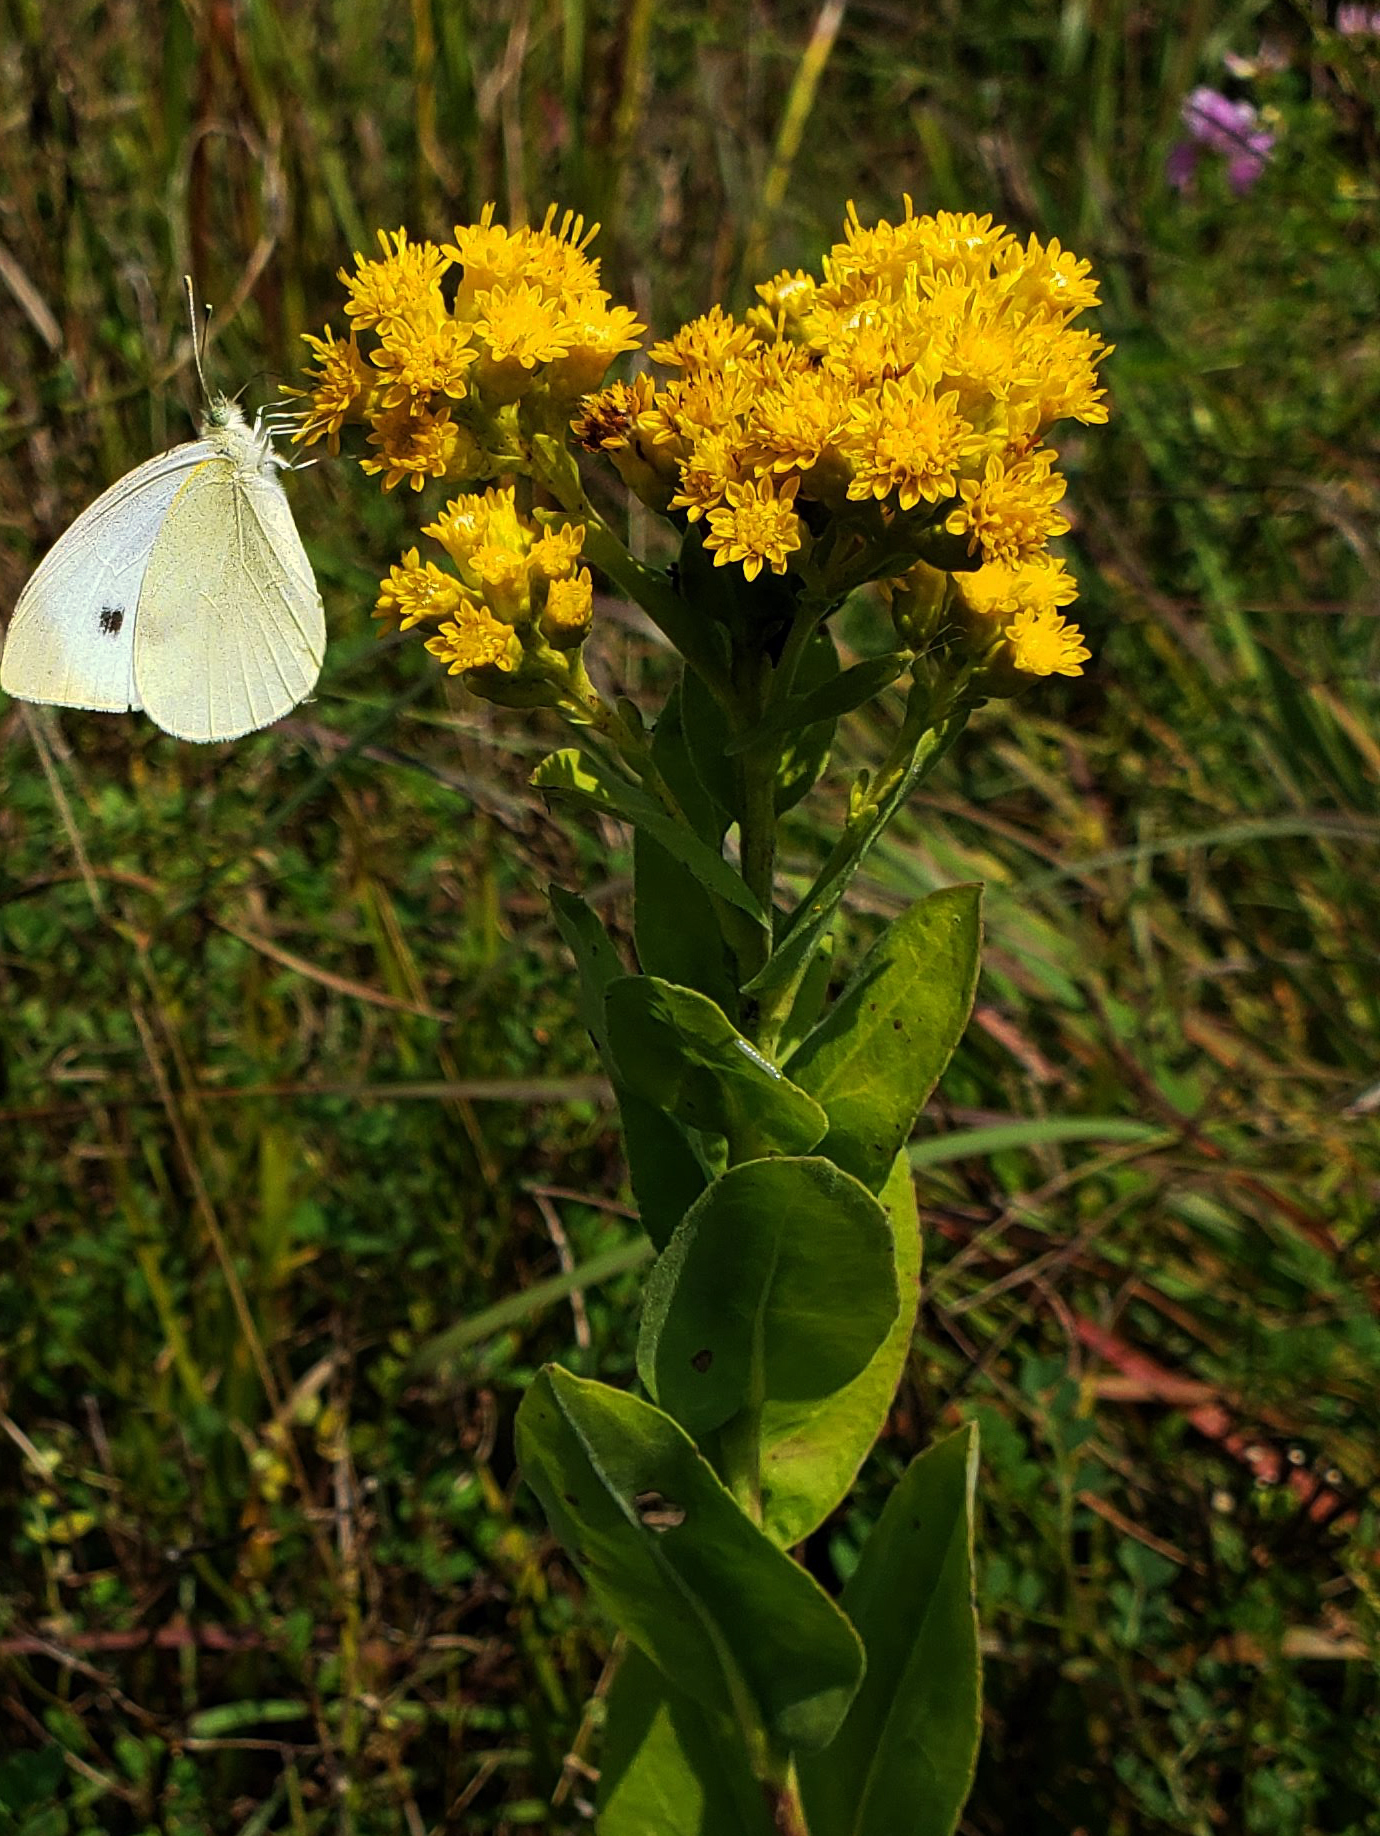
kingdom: Plantae
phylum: Tracheophyta
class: Magnoliopsida
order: Asterales
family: Asteraceae
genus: Solidago
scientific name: Solidago rigida
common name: Rigid goldenrod
